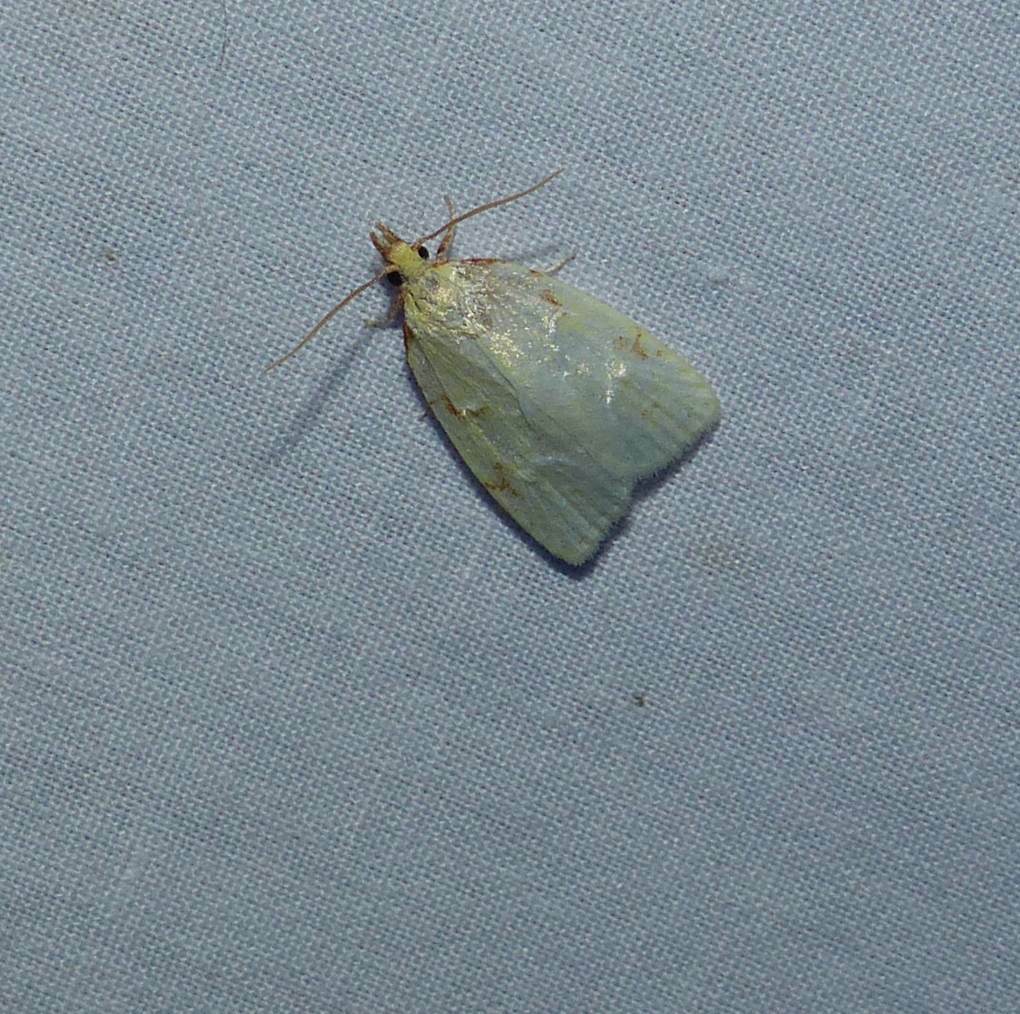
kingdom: Animalia
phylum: Arthropoda
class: Insecta
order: Lepidoptera
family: Tortricidae
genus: Cenopis
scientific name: Cenopis pettitana
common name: Maple-basswood leafroller moth
